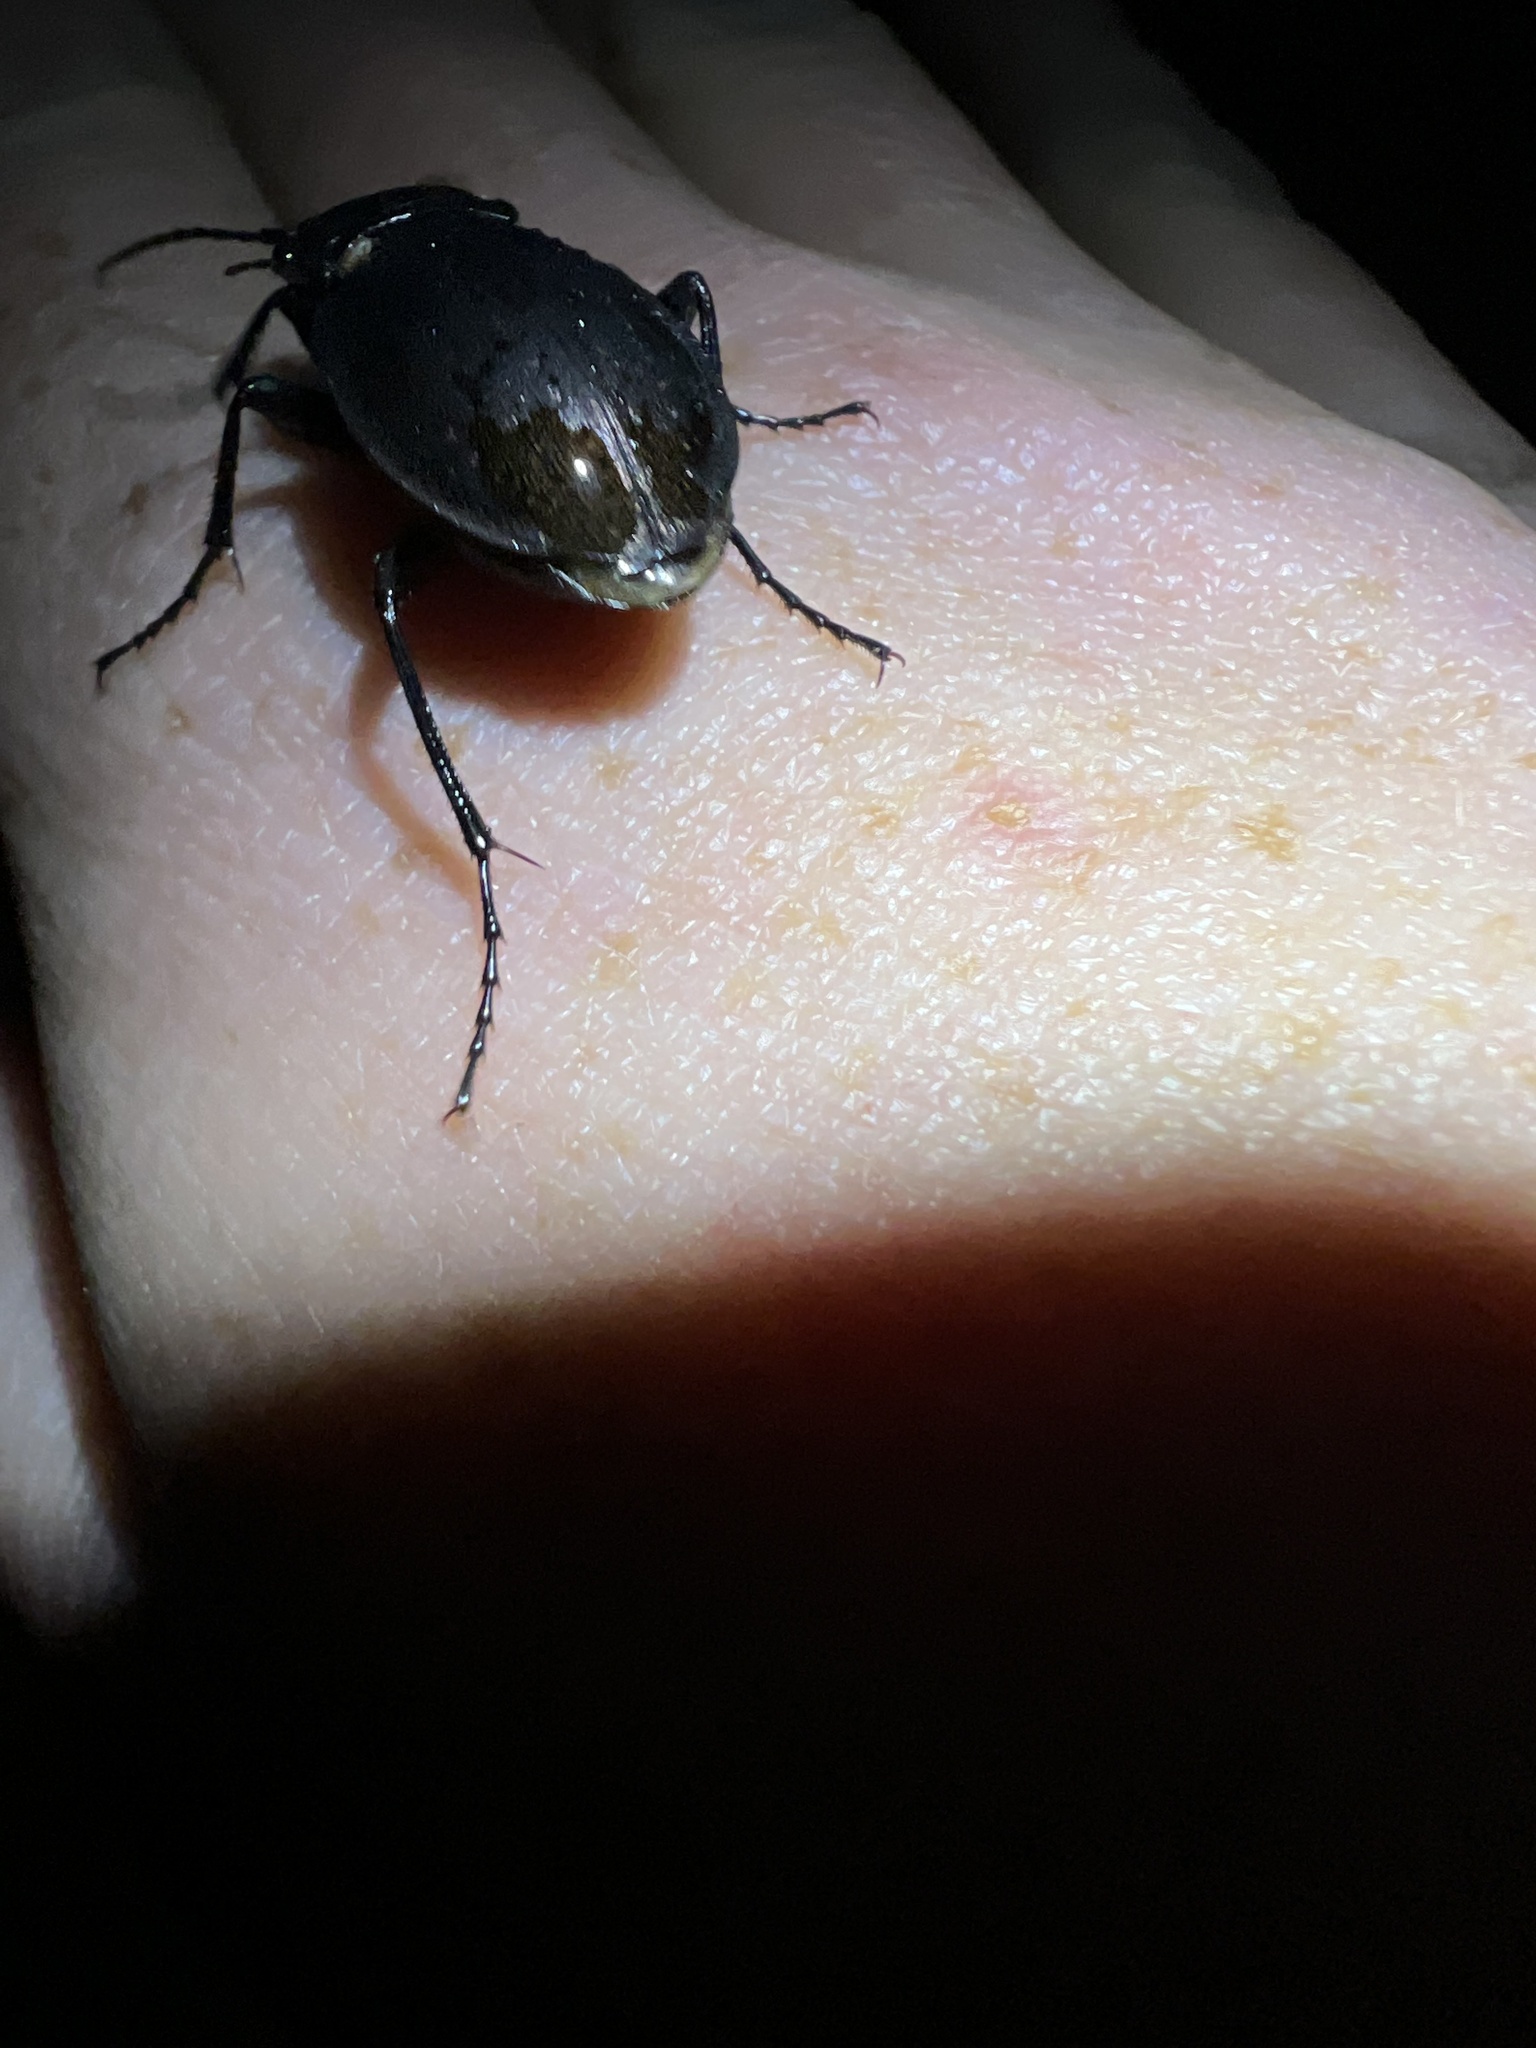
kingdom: Animalia
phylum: Arthropoda
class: Insecta
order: Coleoptera
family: Carabidae
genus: Carabus
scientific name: Carabus nemoralis
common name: European ground beetle
